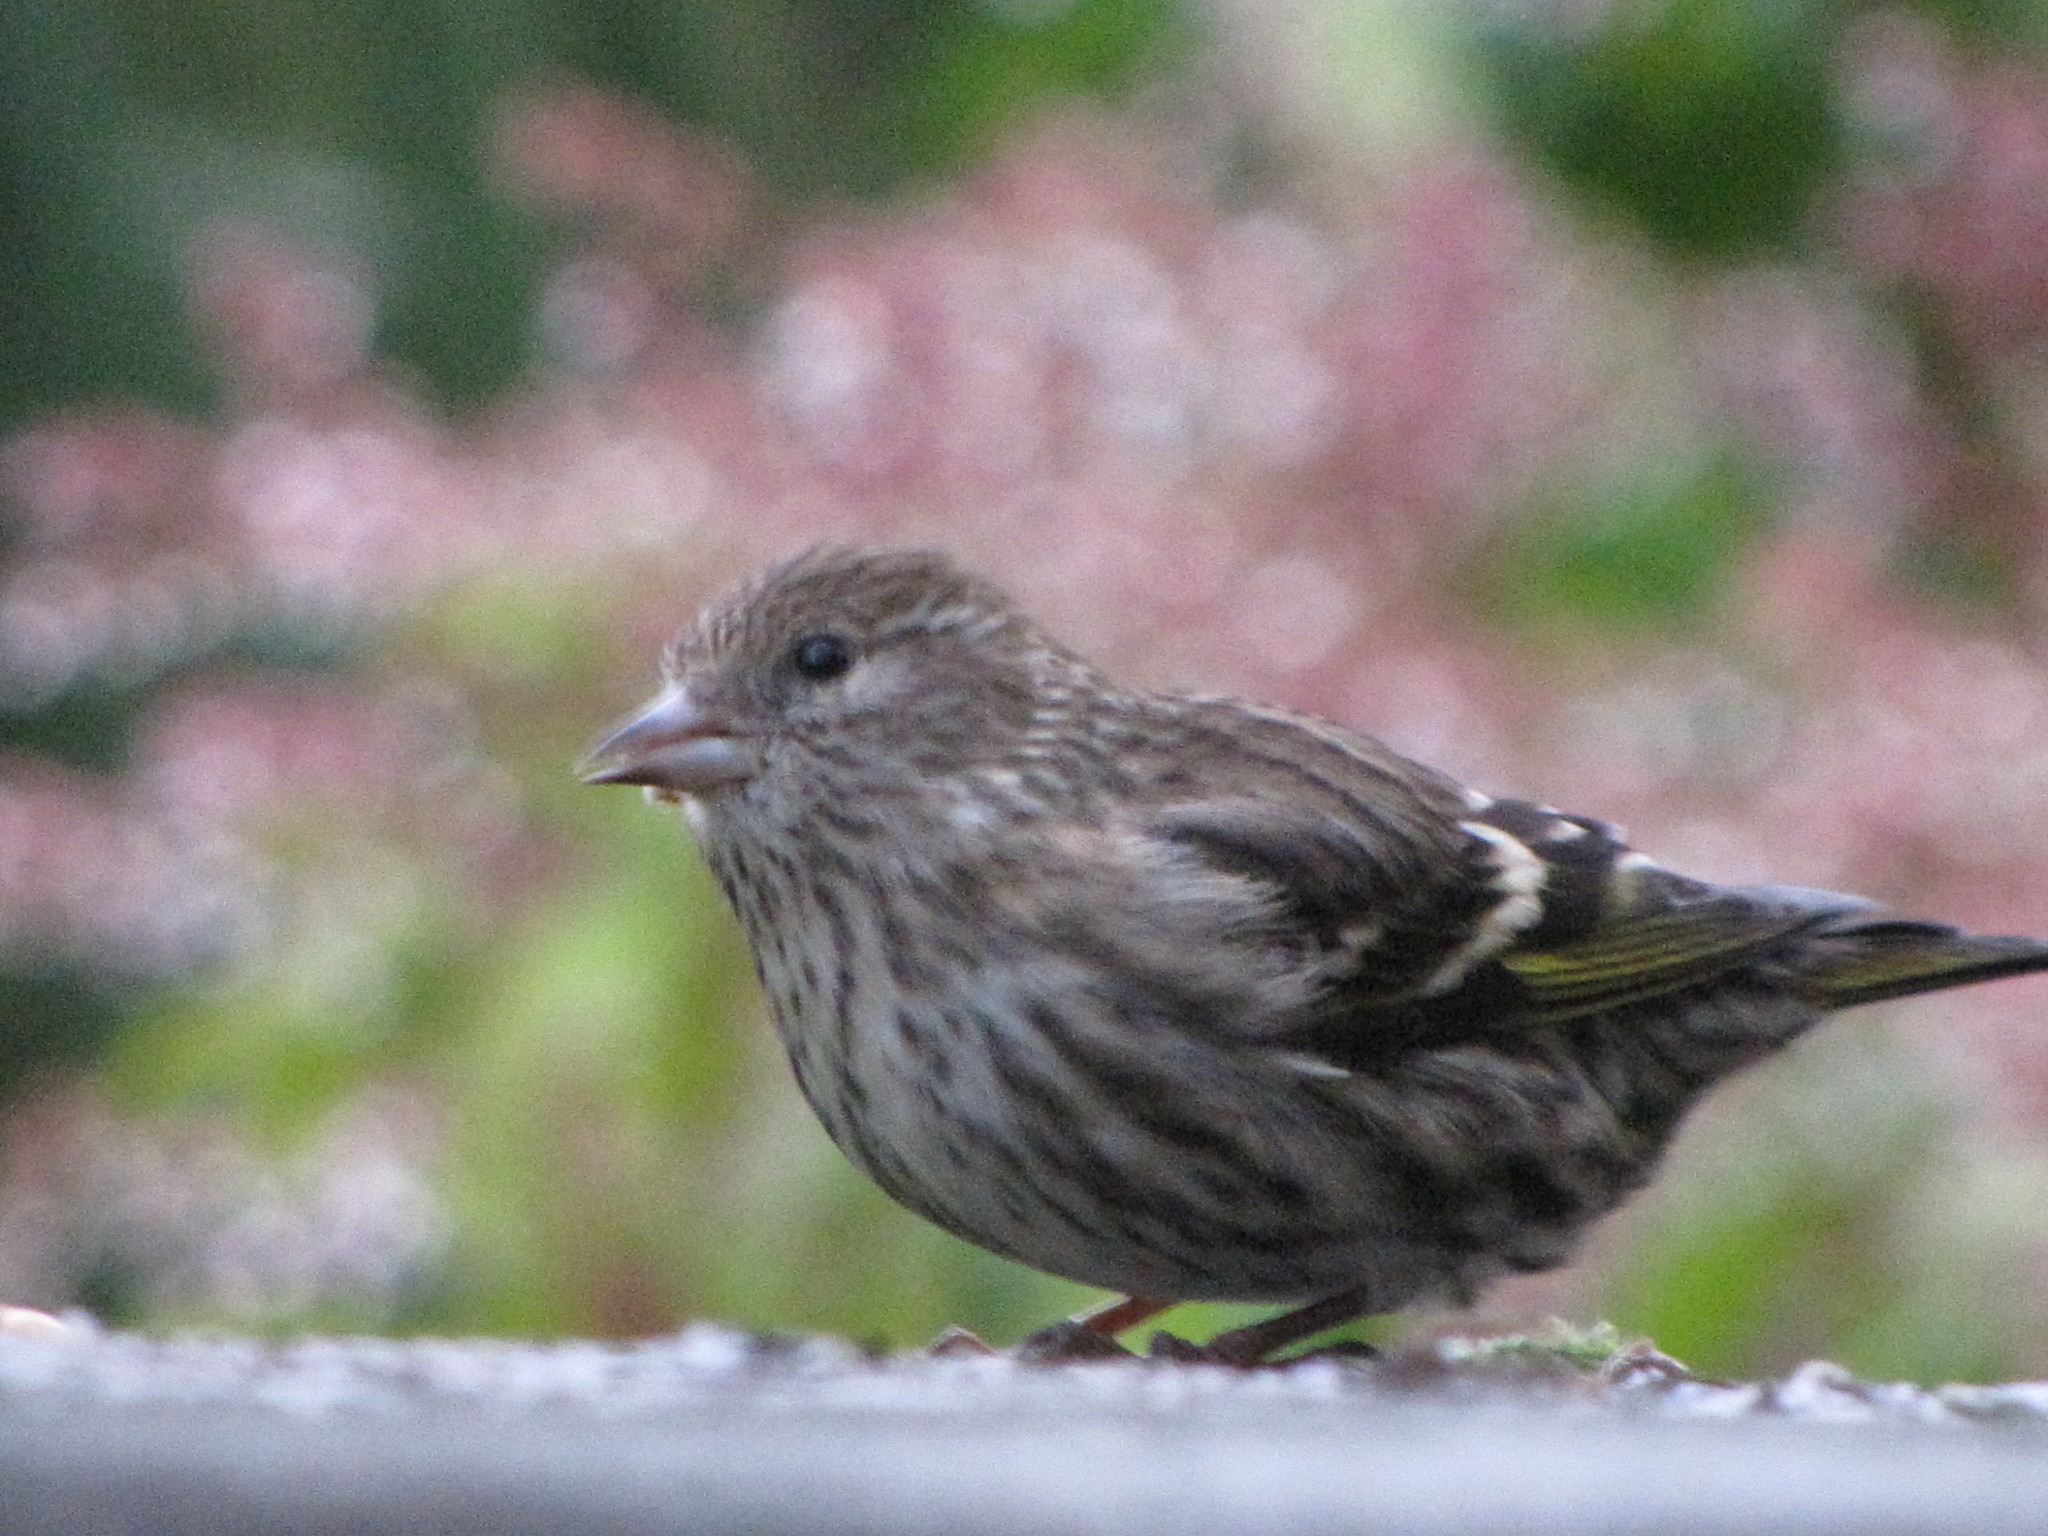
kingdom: Animalia
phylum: Chordata
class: Aves
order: Passeriformes
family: Fringillidae
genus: Spinus
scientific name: Spinus pinus
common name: Pine siskin
